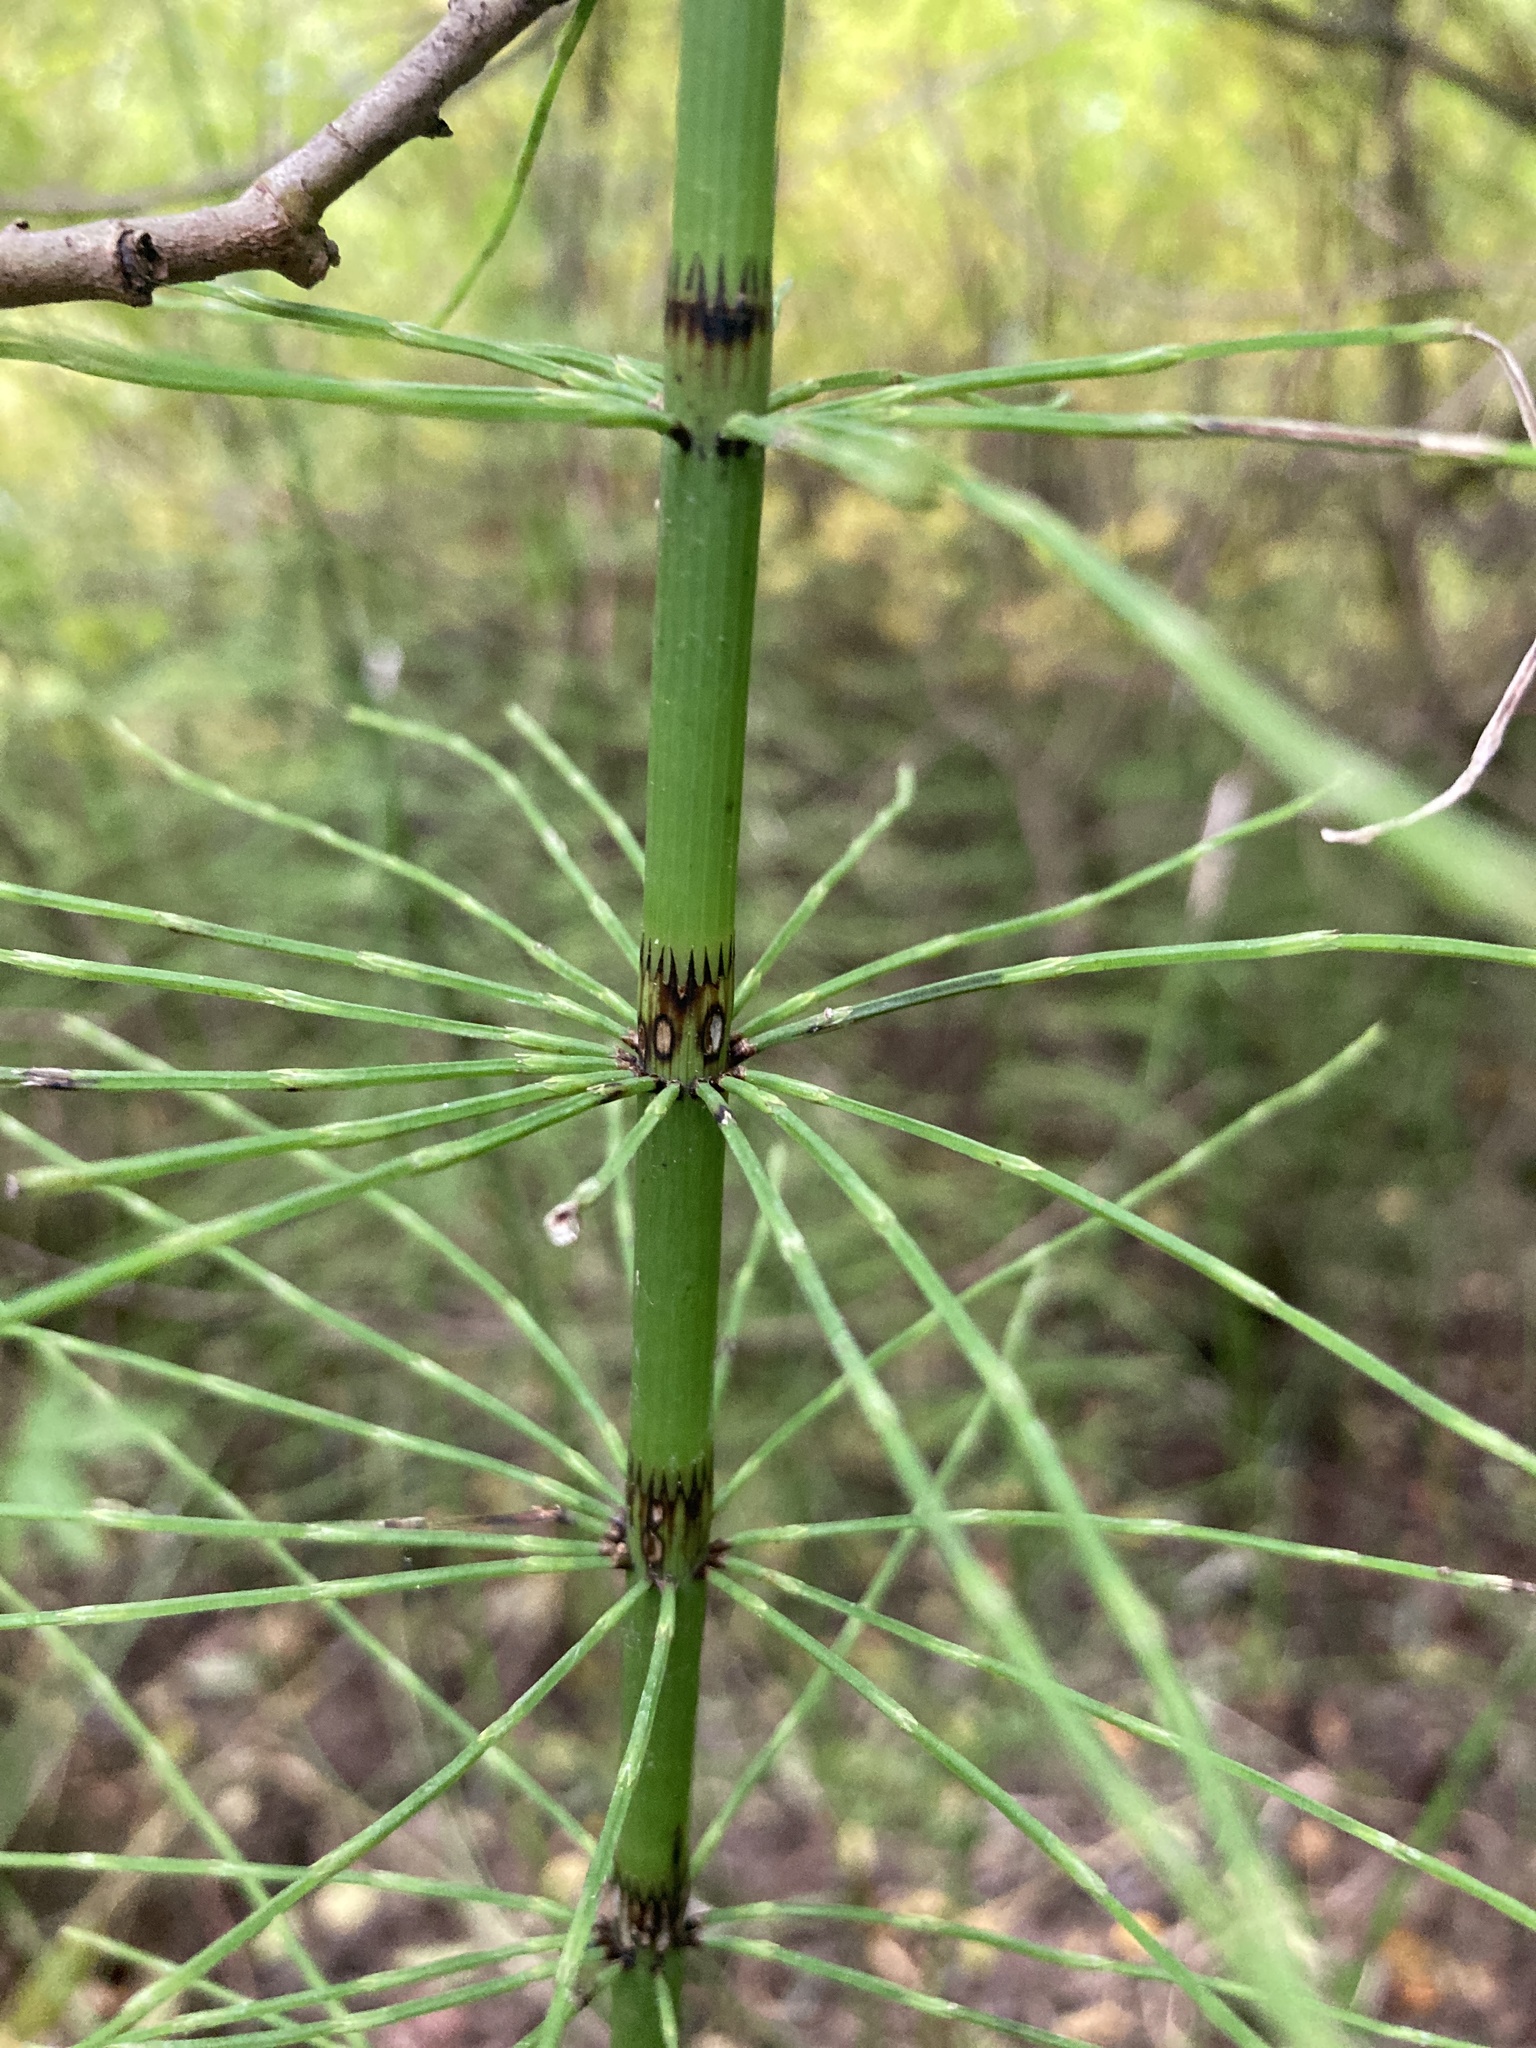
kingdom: Plantae
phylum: Tracheophyta
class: Polypodiopsida
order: Equisetales
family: Equisetaceae
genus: Equisetum
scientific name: Equisetum fluviatile
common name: Water horsetail
